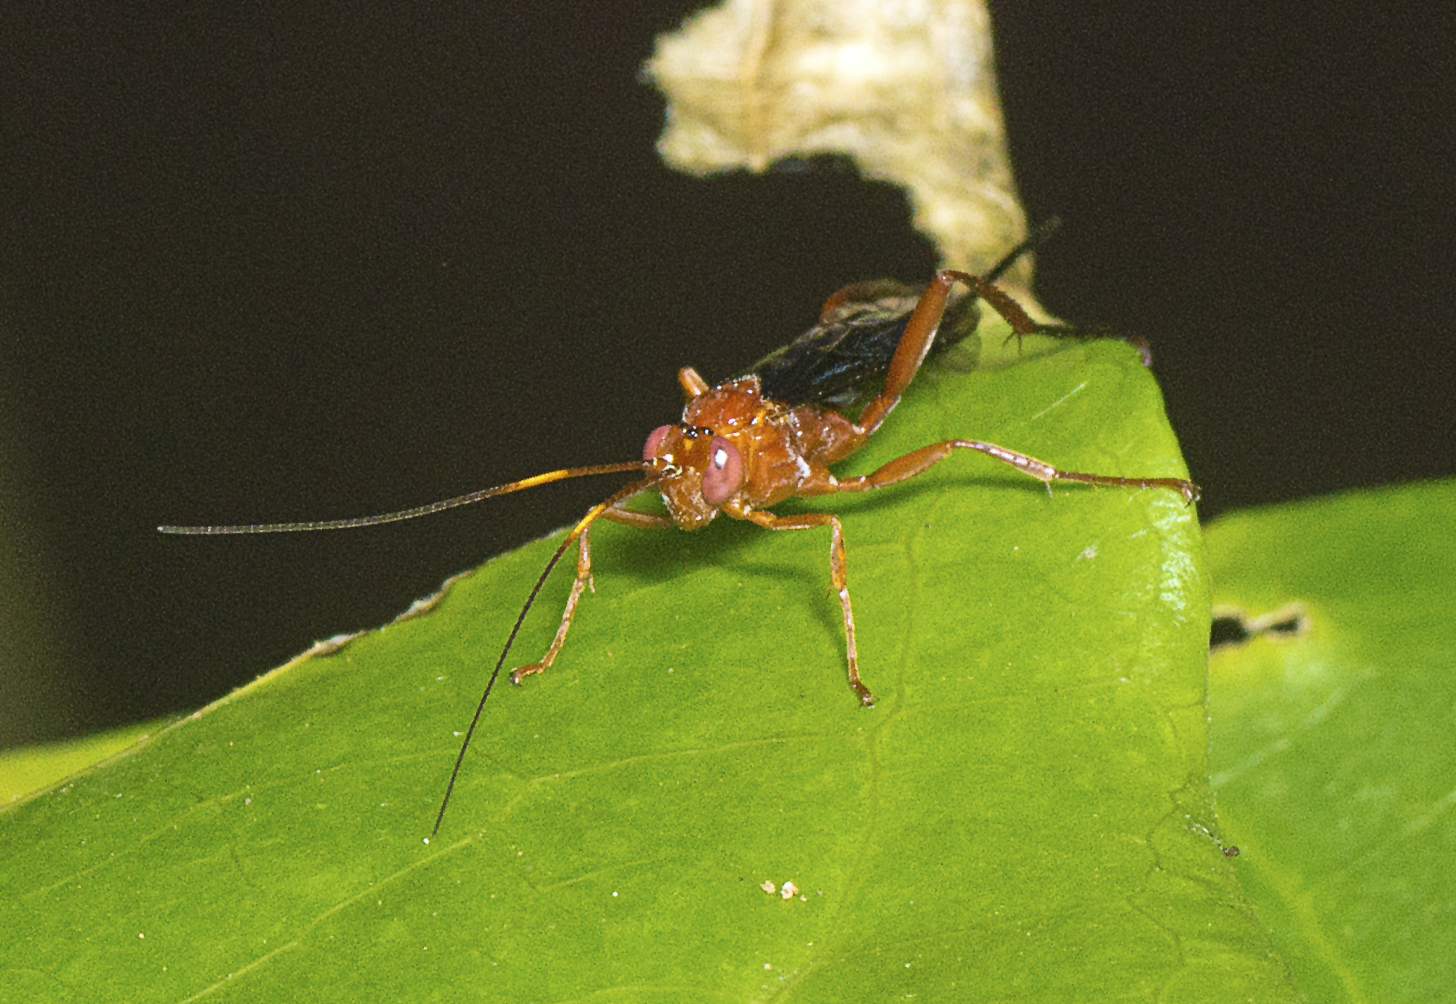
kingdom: Animalia
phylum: Arthropoda
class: Insecta
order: Hymenoptera
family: Ichneumonidae
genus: Lissopimpla
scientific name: Lissopimpla excelsa
